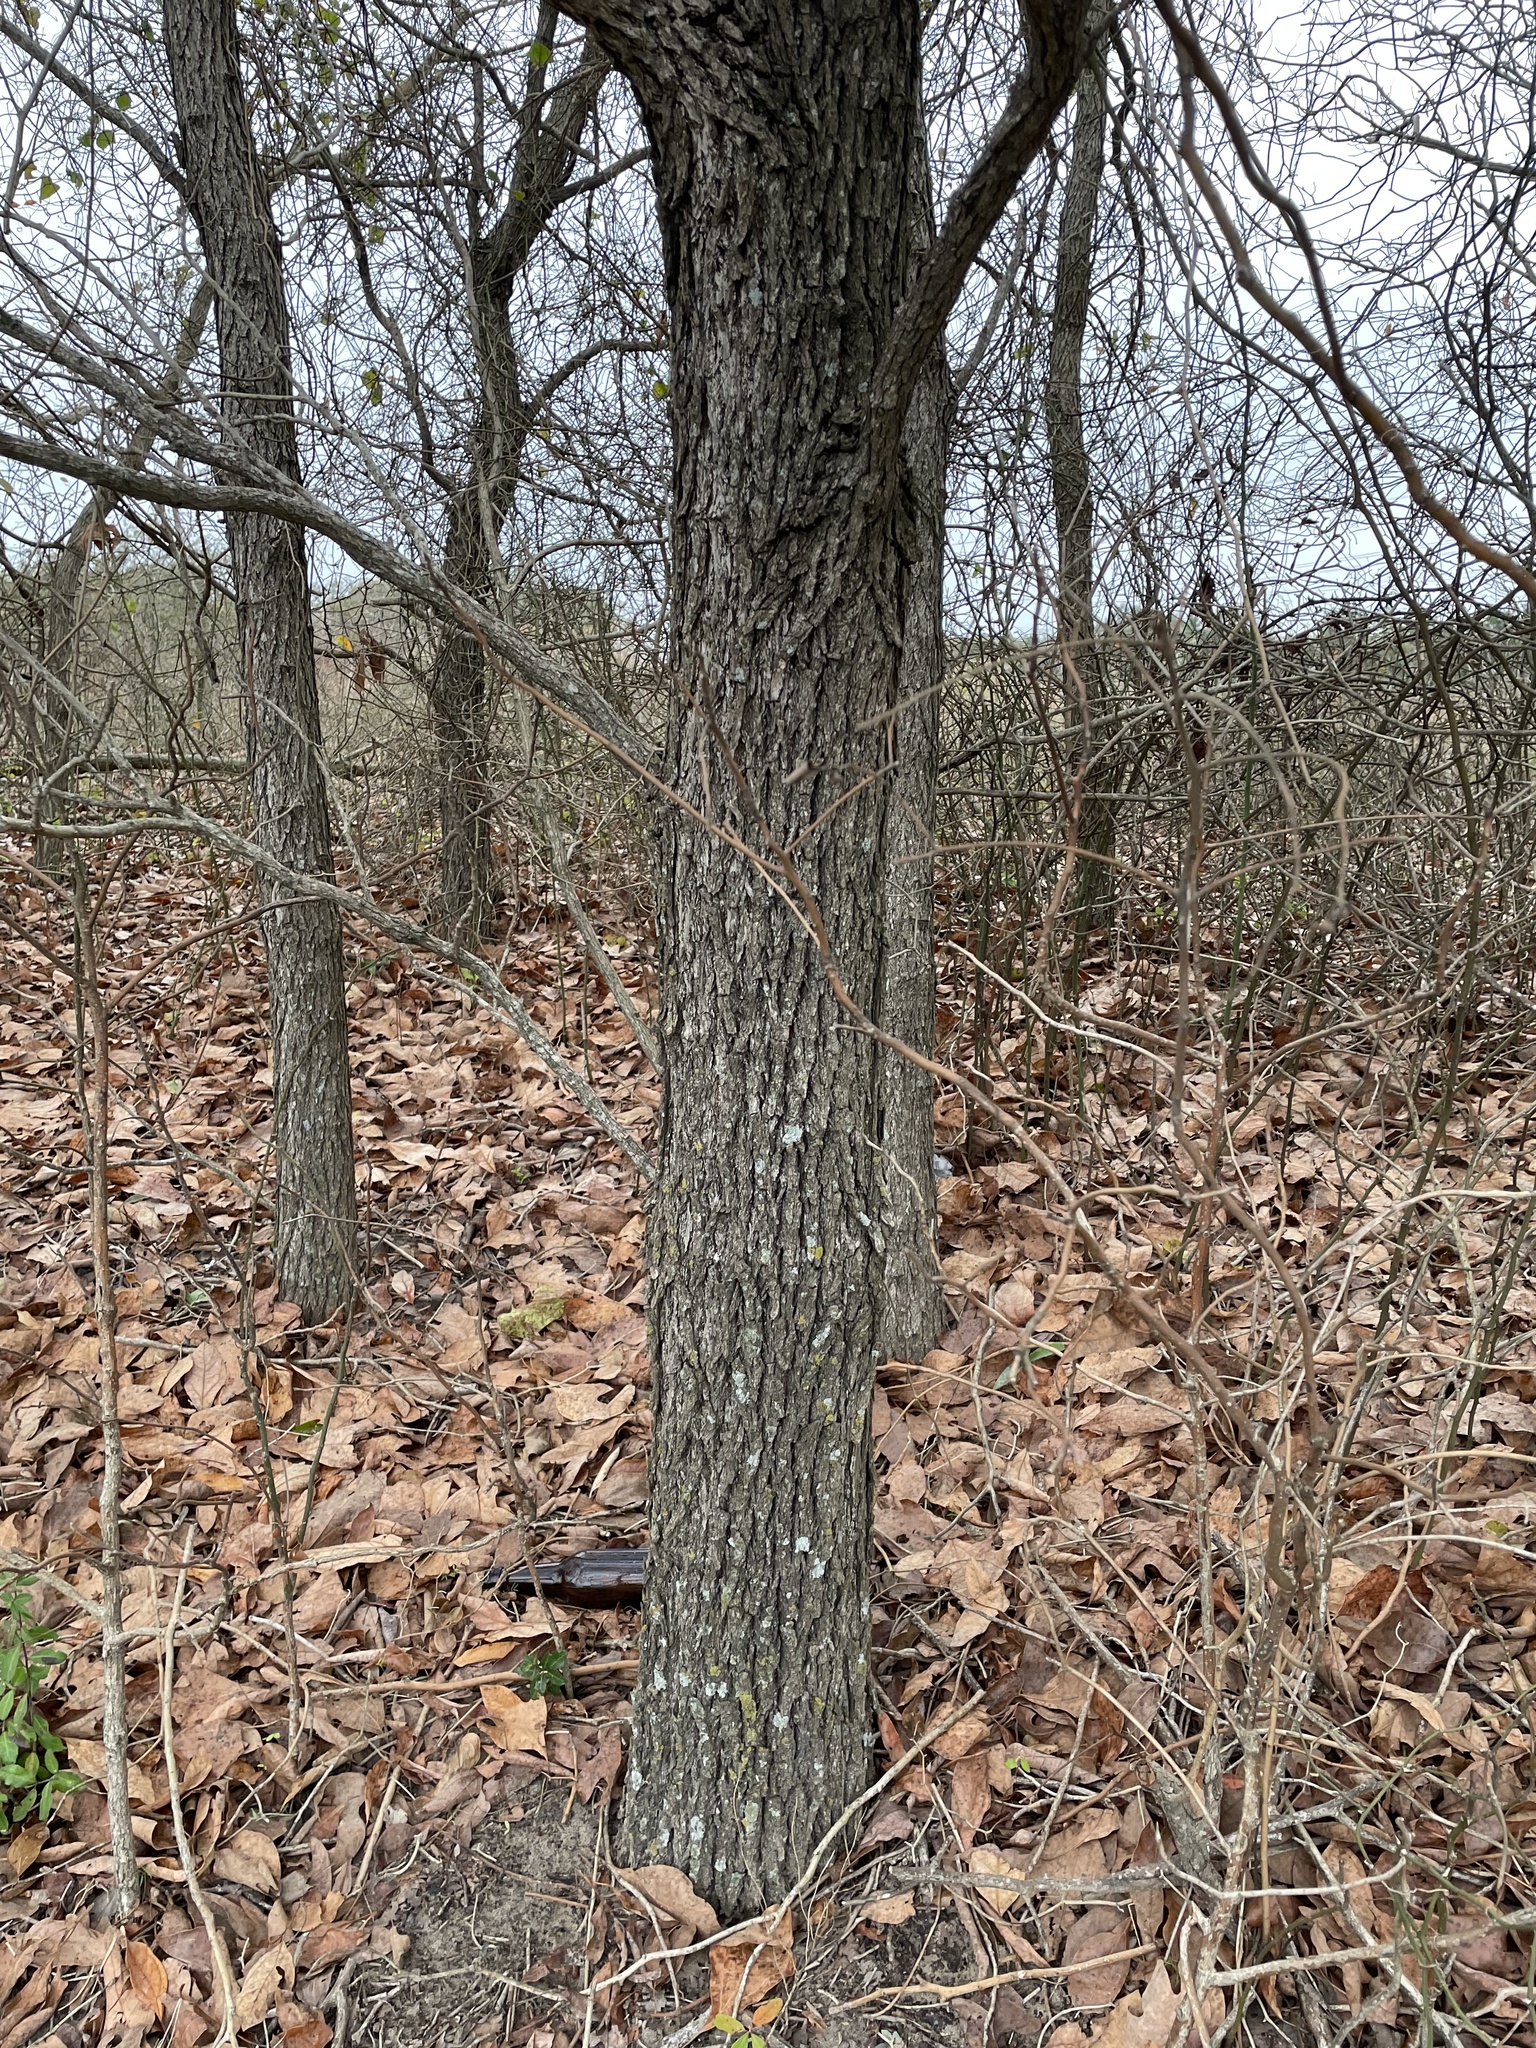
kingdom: Plantae
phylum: Tracheophyta
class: Magnoliopsida
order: Laurales
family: Lauraceae
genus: Sassafras
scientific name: Sassafras albidum
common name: Sassafras
